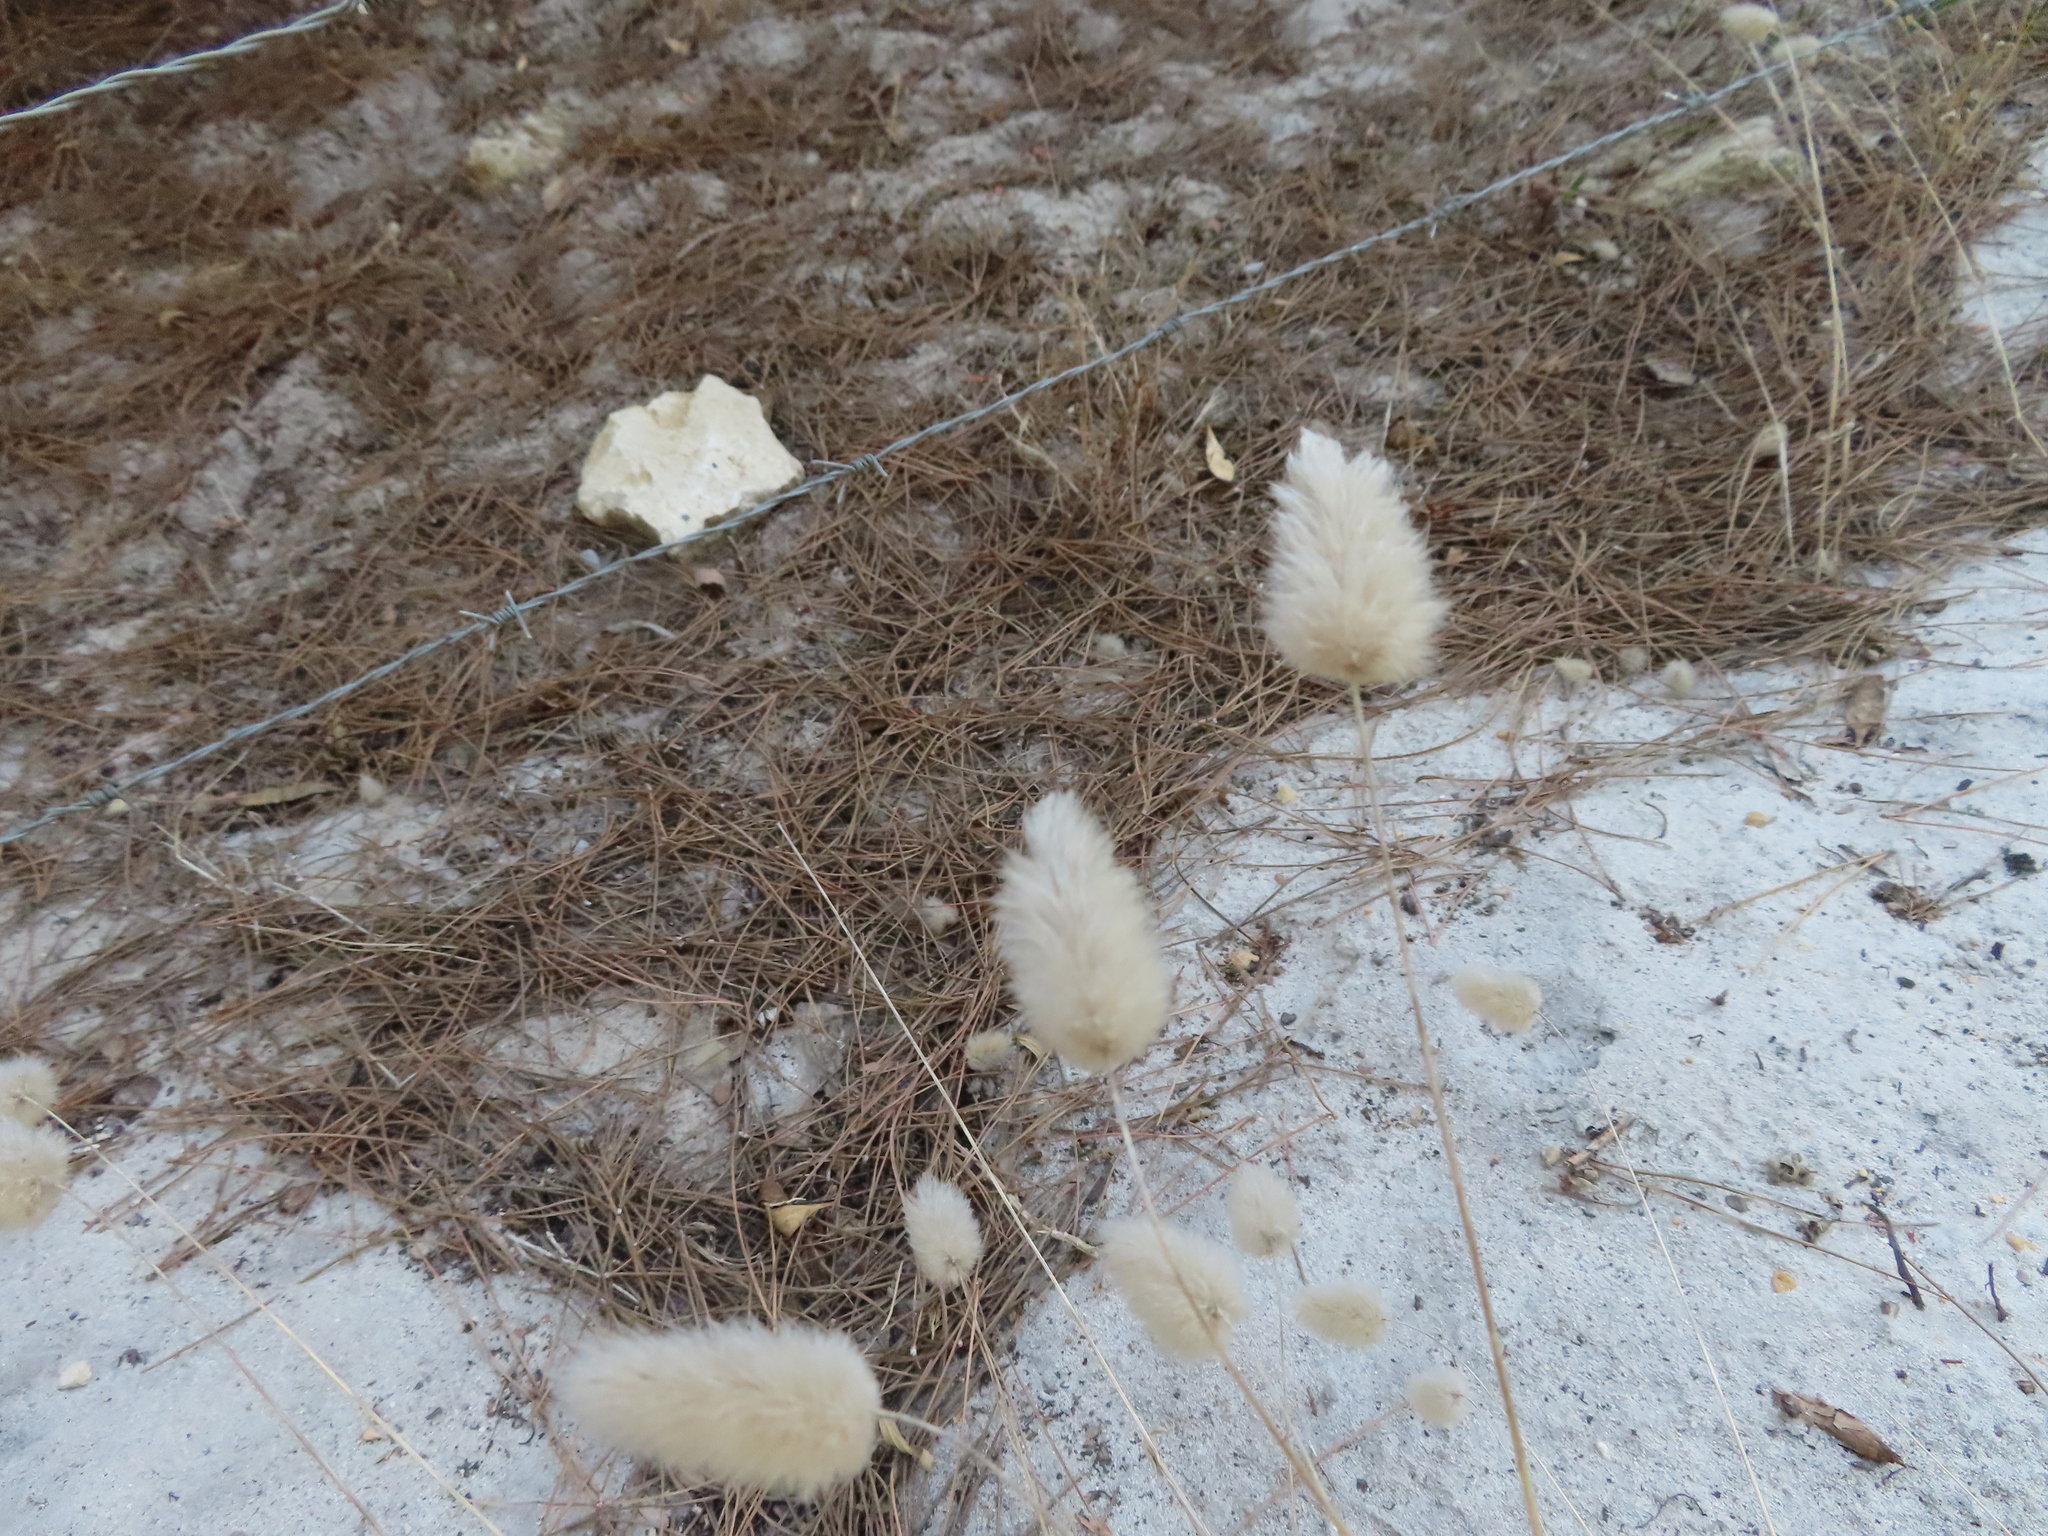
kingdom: Plantae
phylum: Tracheophyta
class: Liliopsida
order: Poales
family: Poaceae
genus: Lagurus
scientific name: Lagurus ovatus
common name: Hare's-tail
